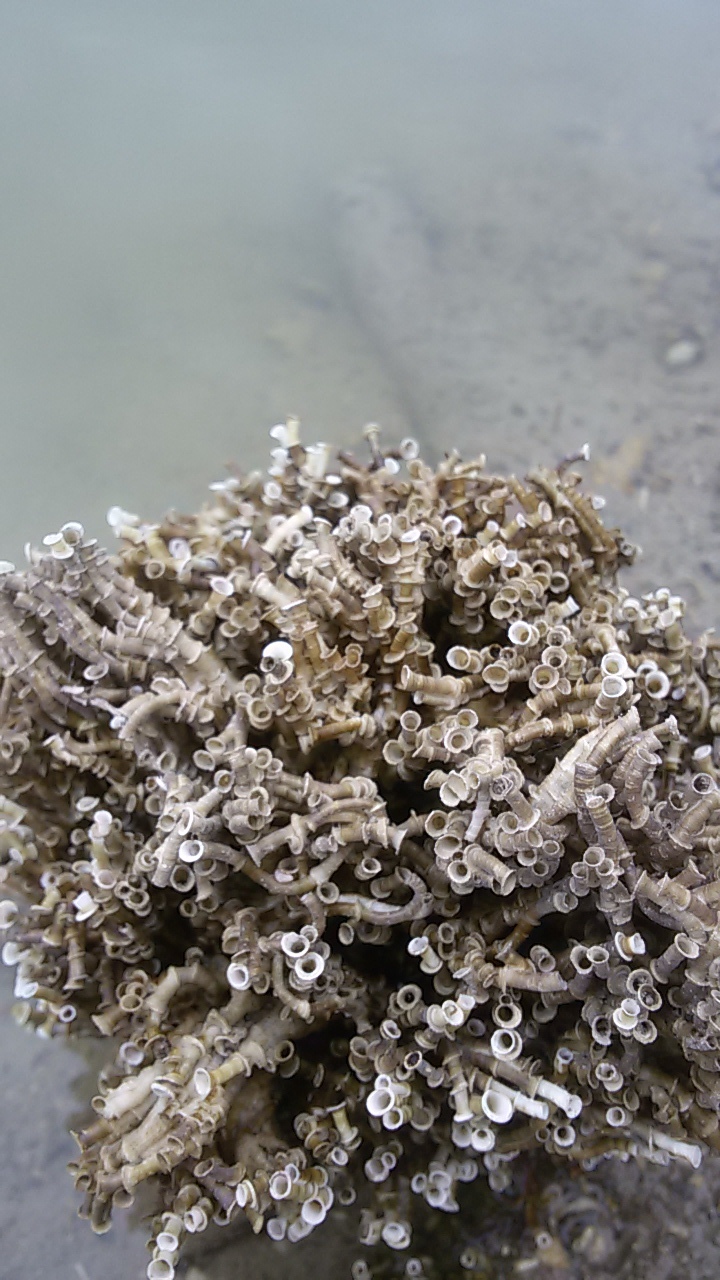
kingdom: Animalia
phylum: Annelida
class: Polychaeta
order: Sabellida
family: Serpulidae
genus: Ficopomatus
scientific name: Ficopomatus enigmaticus
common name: Australian tubeworm
